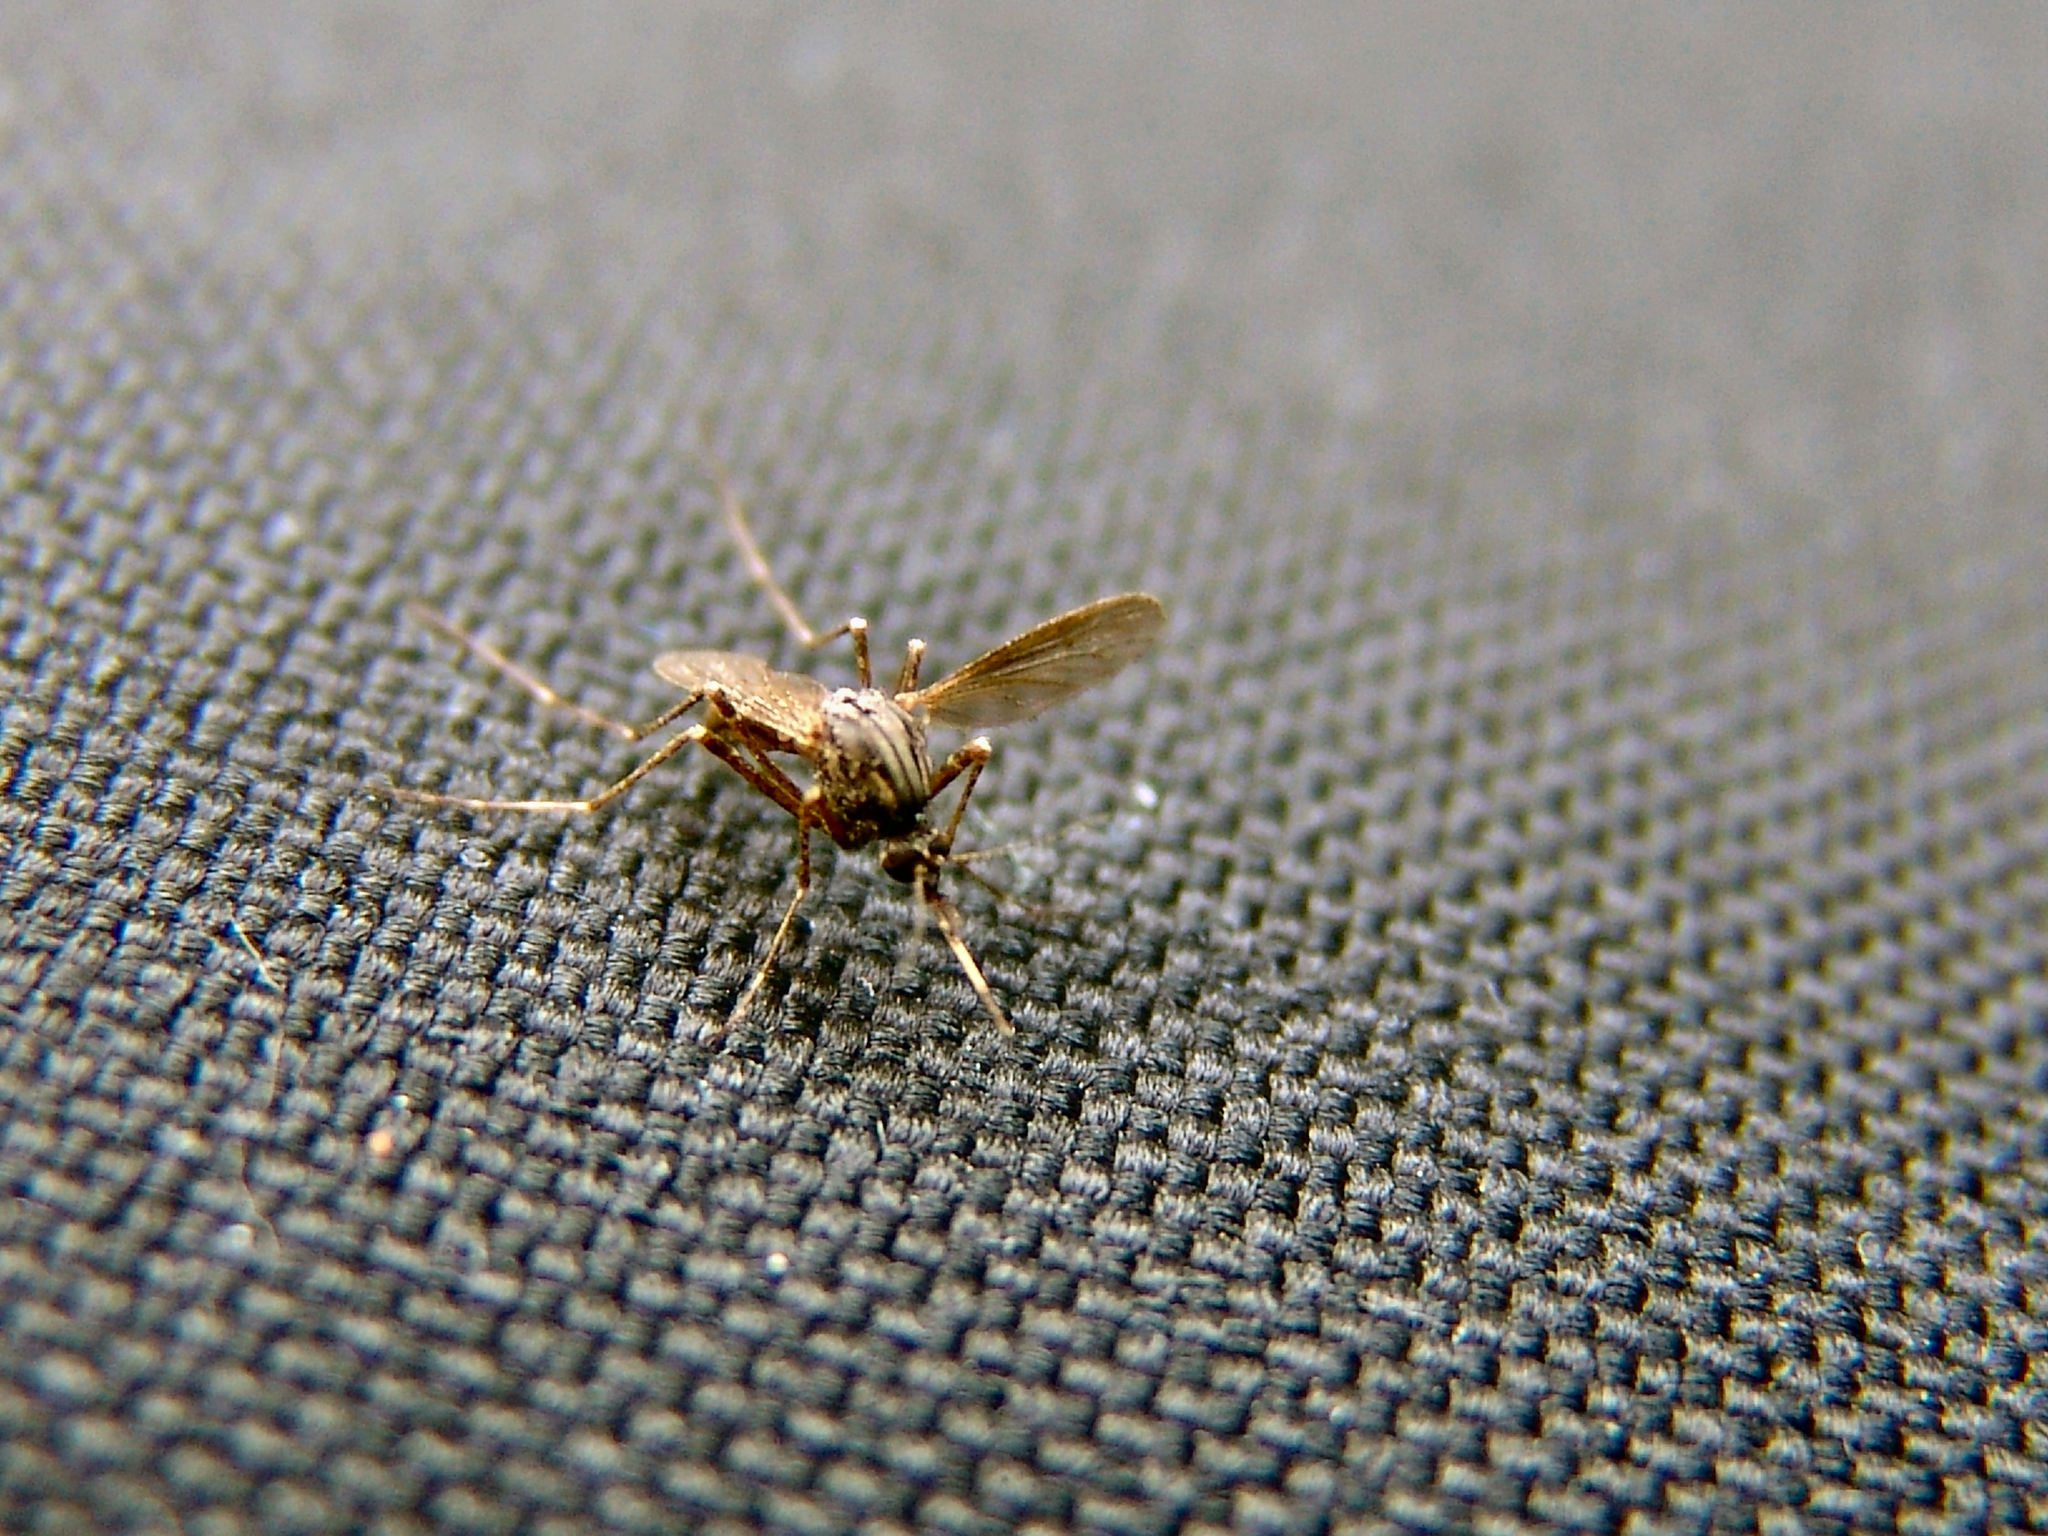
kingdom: Animalia
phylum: Arthropoda
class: Insecta
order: Diptera
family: Culicidae
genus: Psorophora
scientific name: Psorophora columbiae
